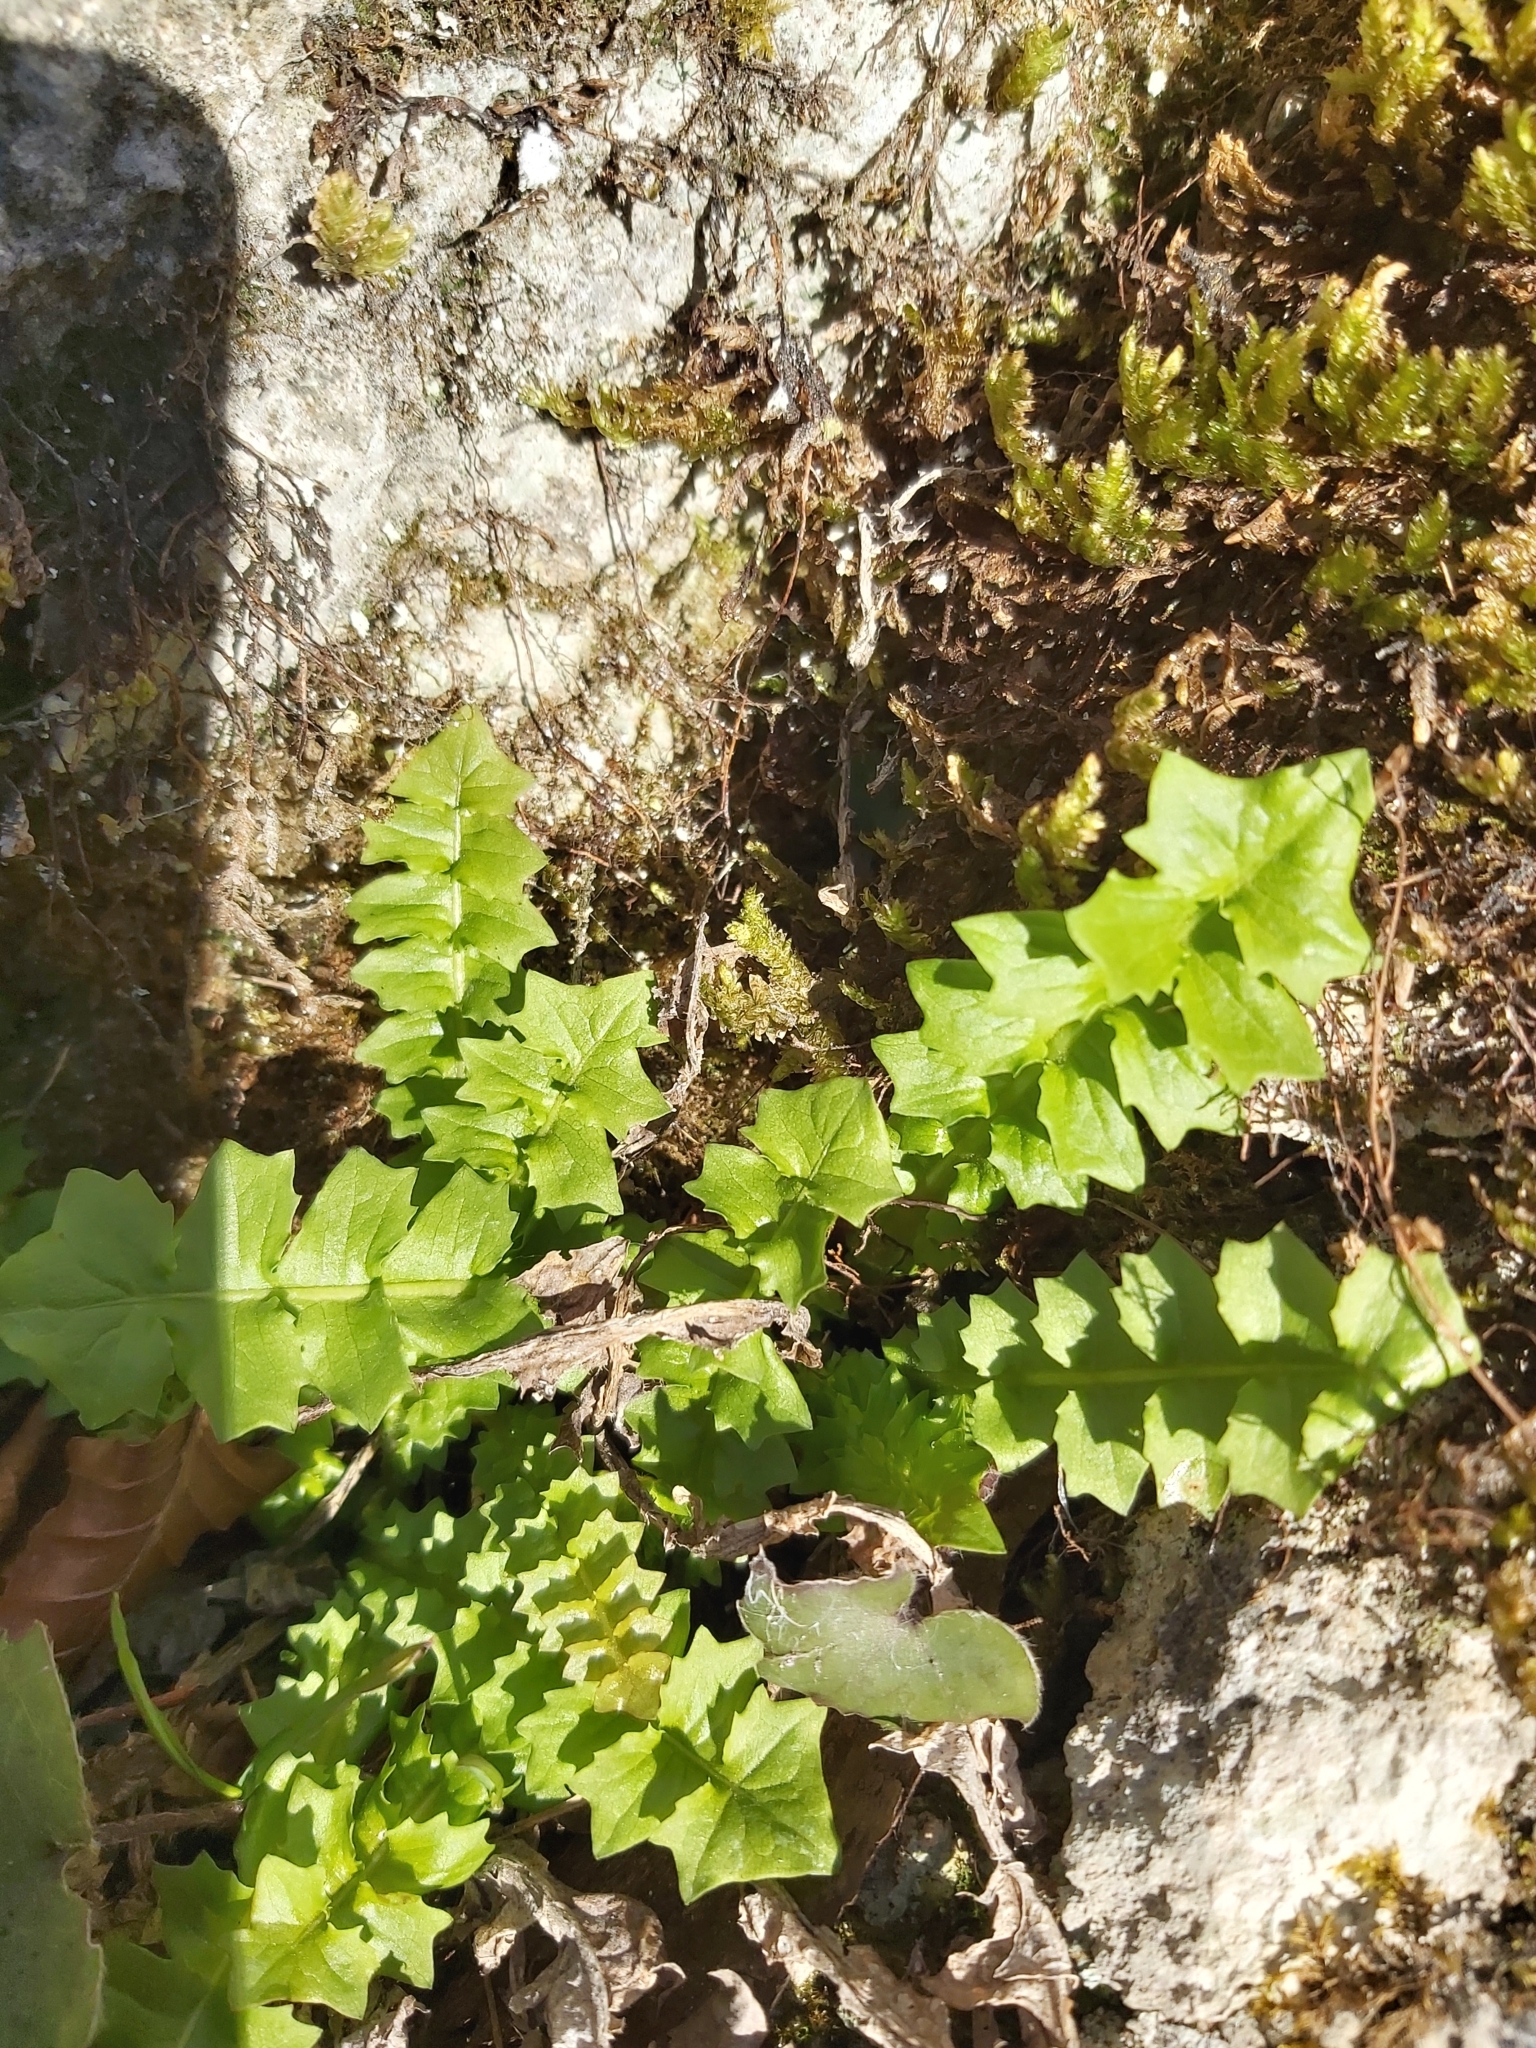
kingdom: Plantae
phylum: Tracheophyta
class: Magnoliopsida
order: Asterales
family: Asteraceae
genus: Aposeris
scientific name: Aposeris foetida
